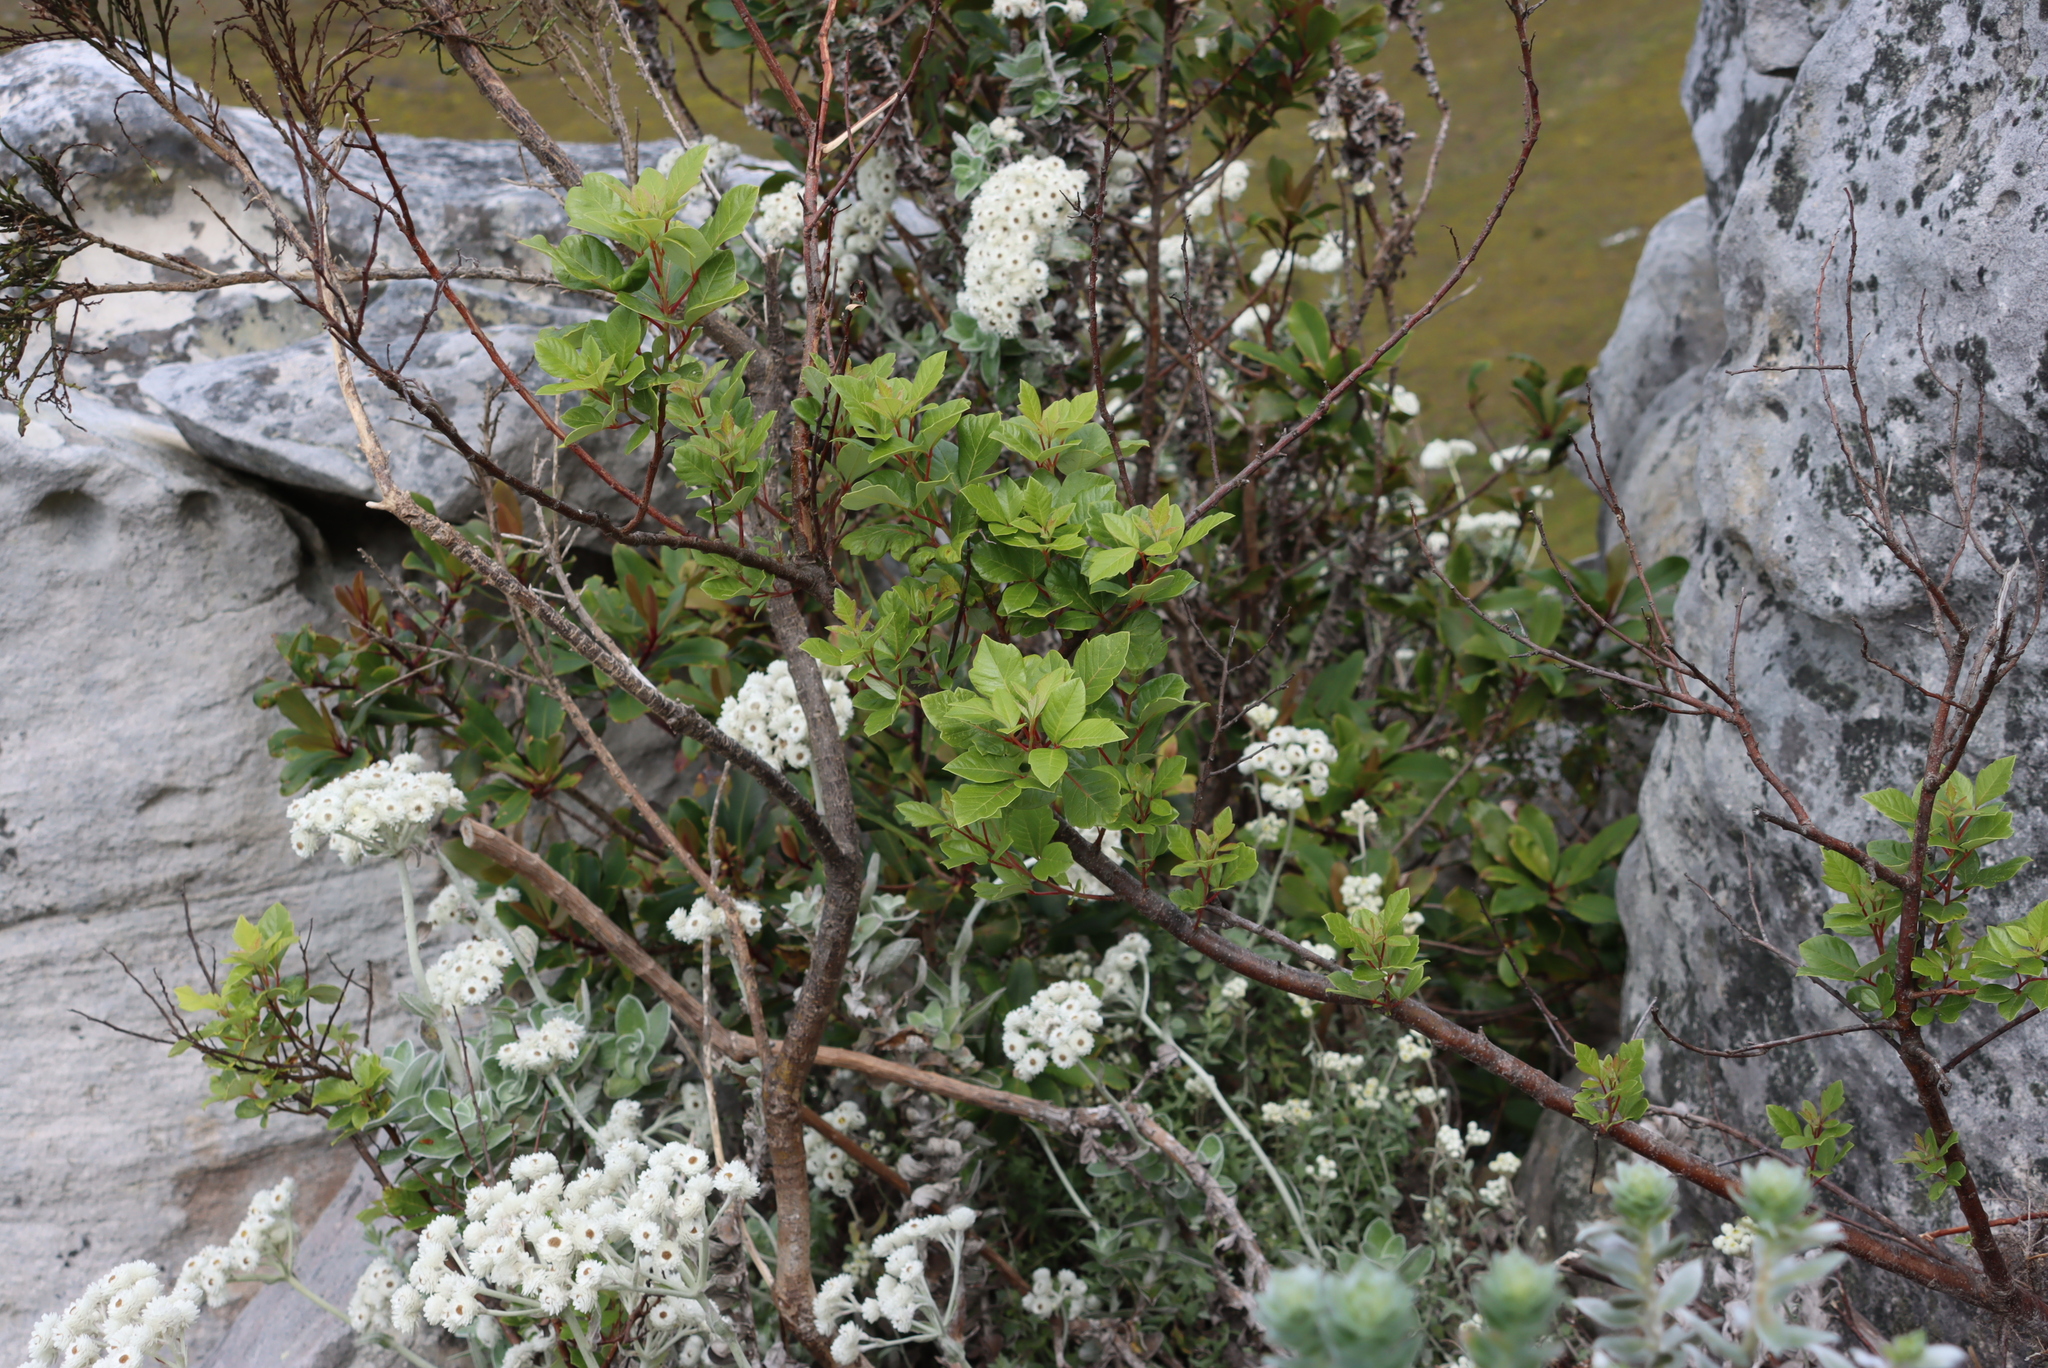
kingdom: Plantae
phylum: Tracheophyta
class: Magnoliopsida
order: Sapindales
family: Anacardiaceae
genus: Searsia
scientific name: Searsia tomentosa
